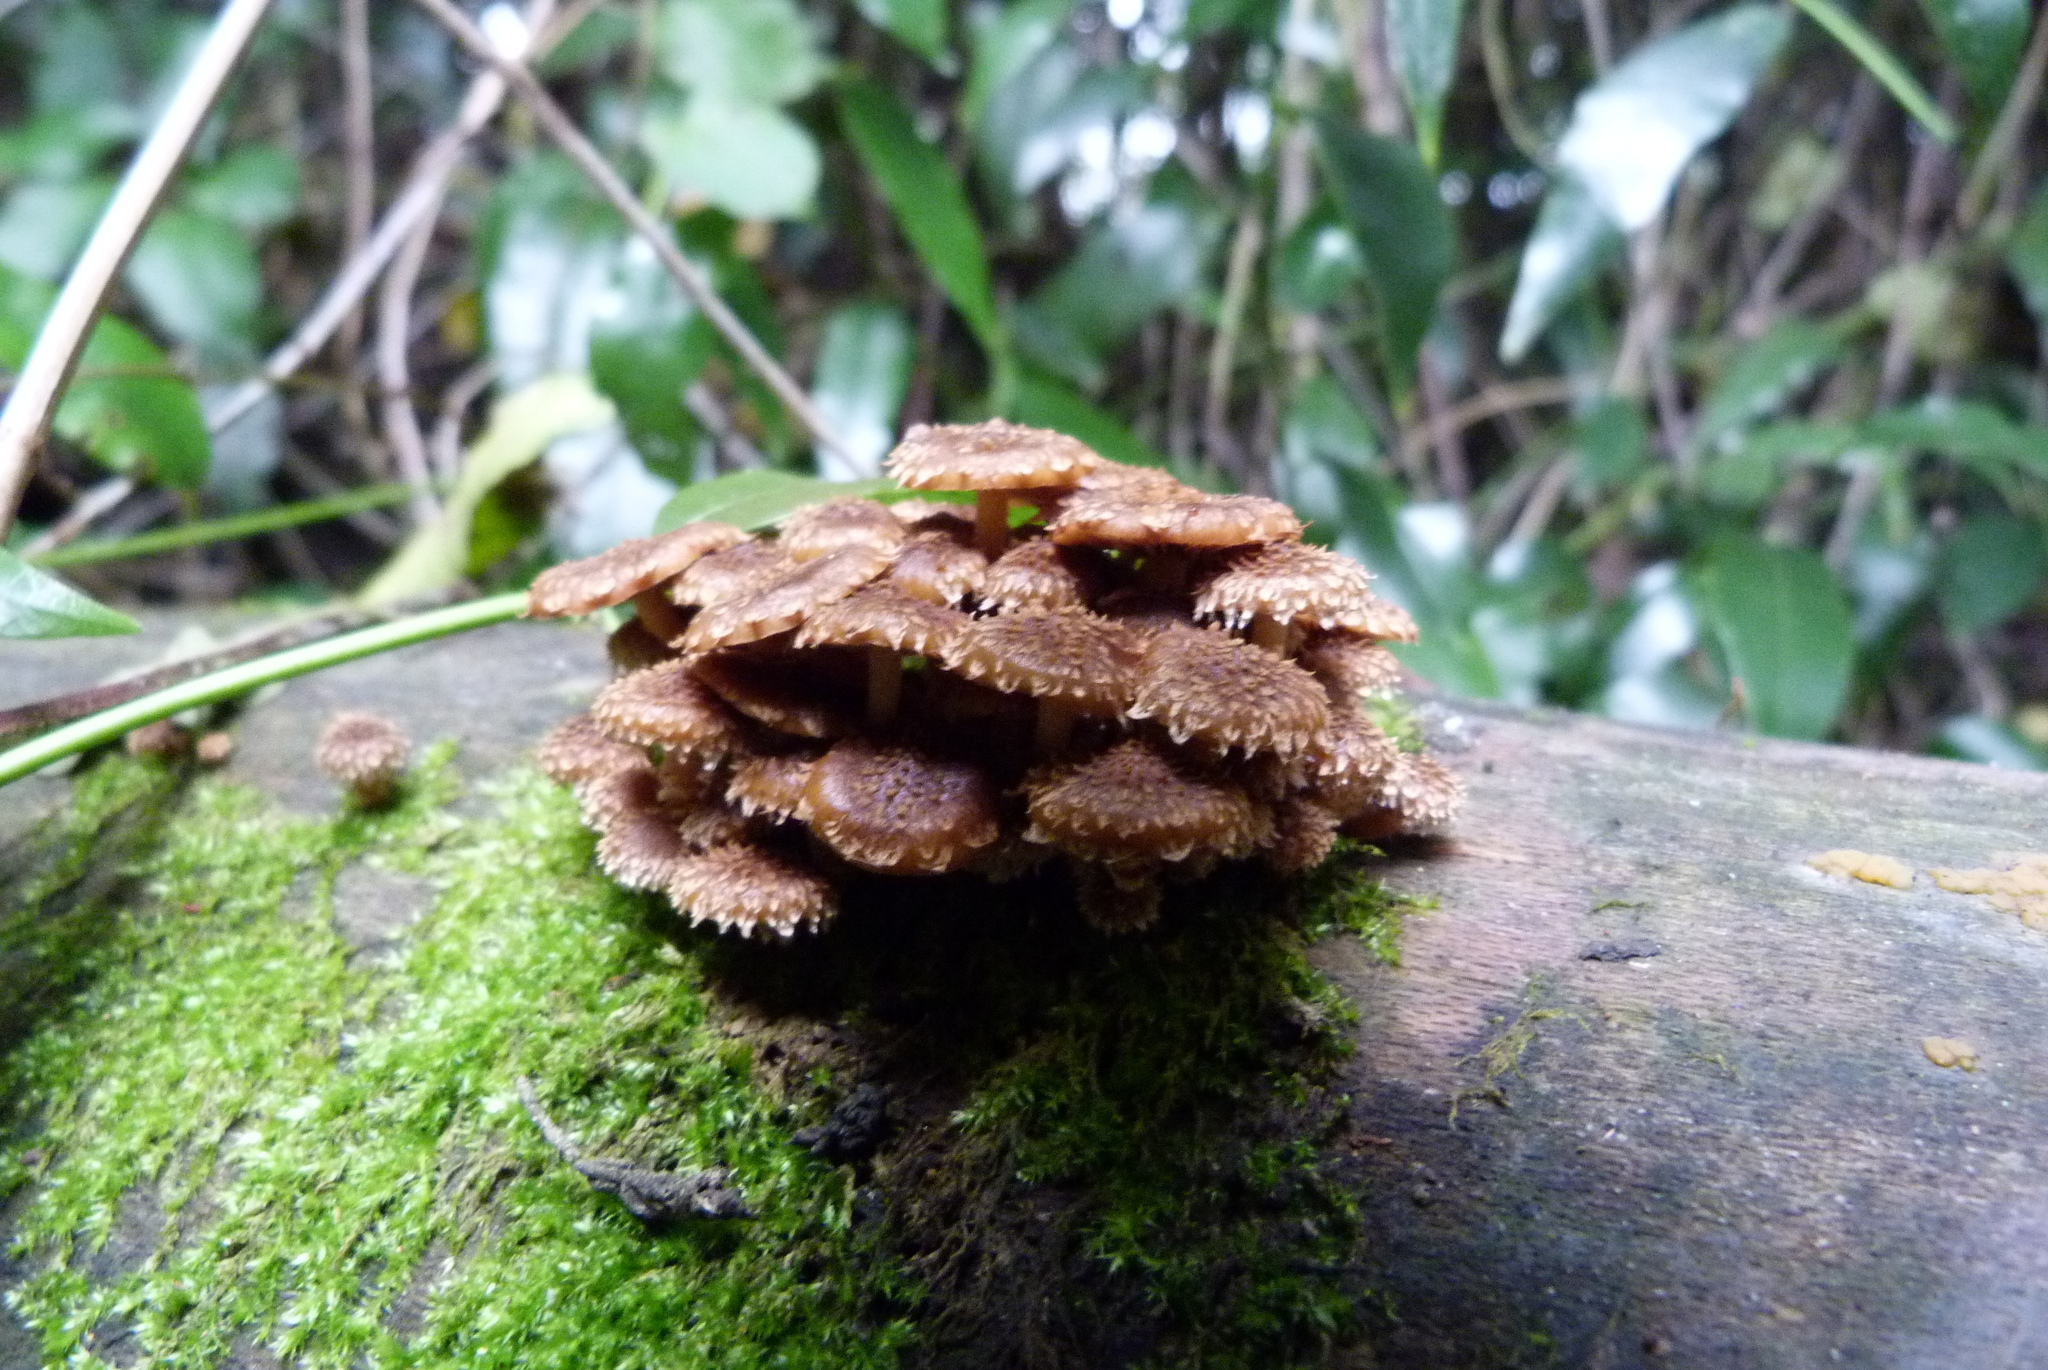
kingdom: Fungi
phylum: Basidiomycota
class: Agaricomycetes
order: Agaricales
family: Psathyrellaceae
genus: Psathyrella
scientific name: Psathyrella echinata
